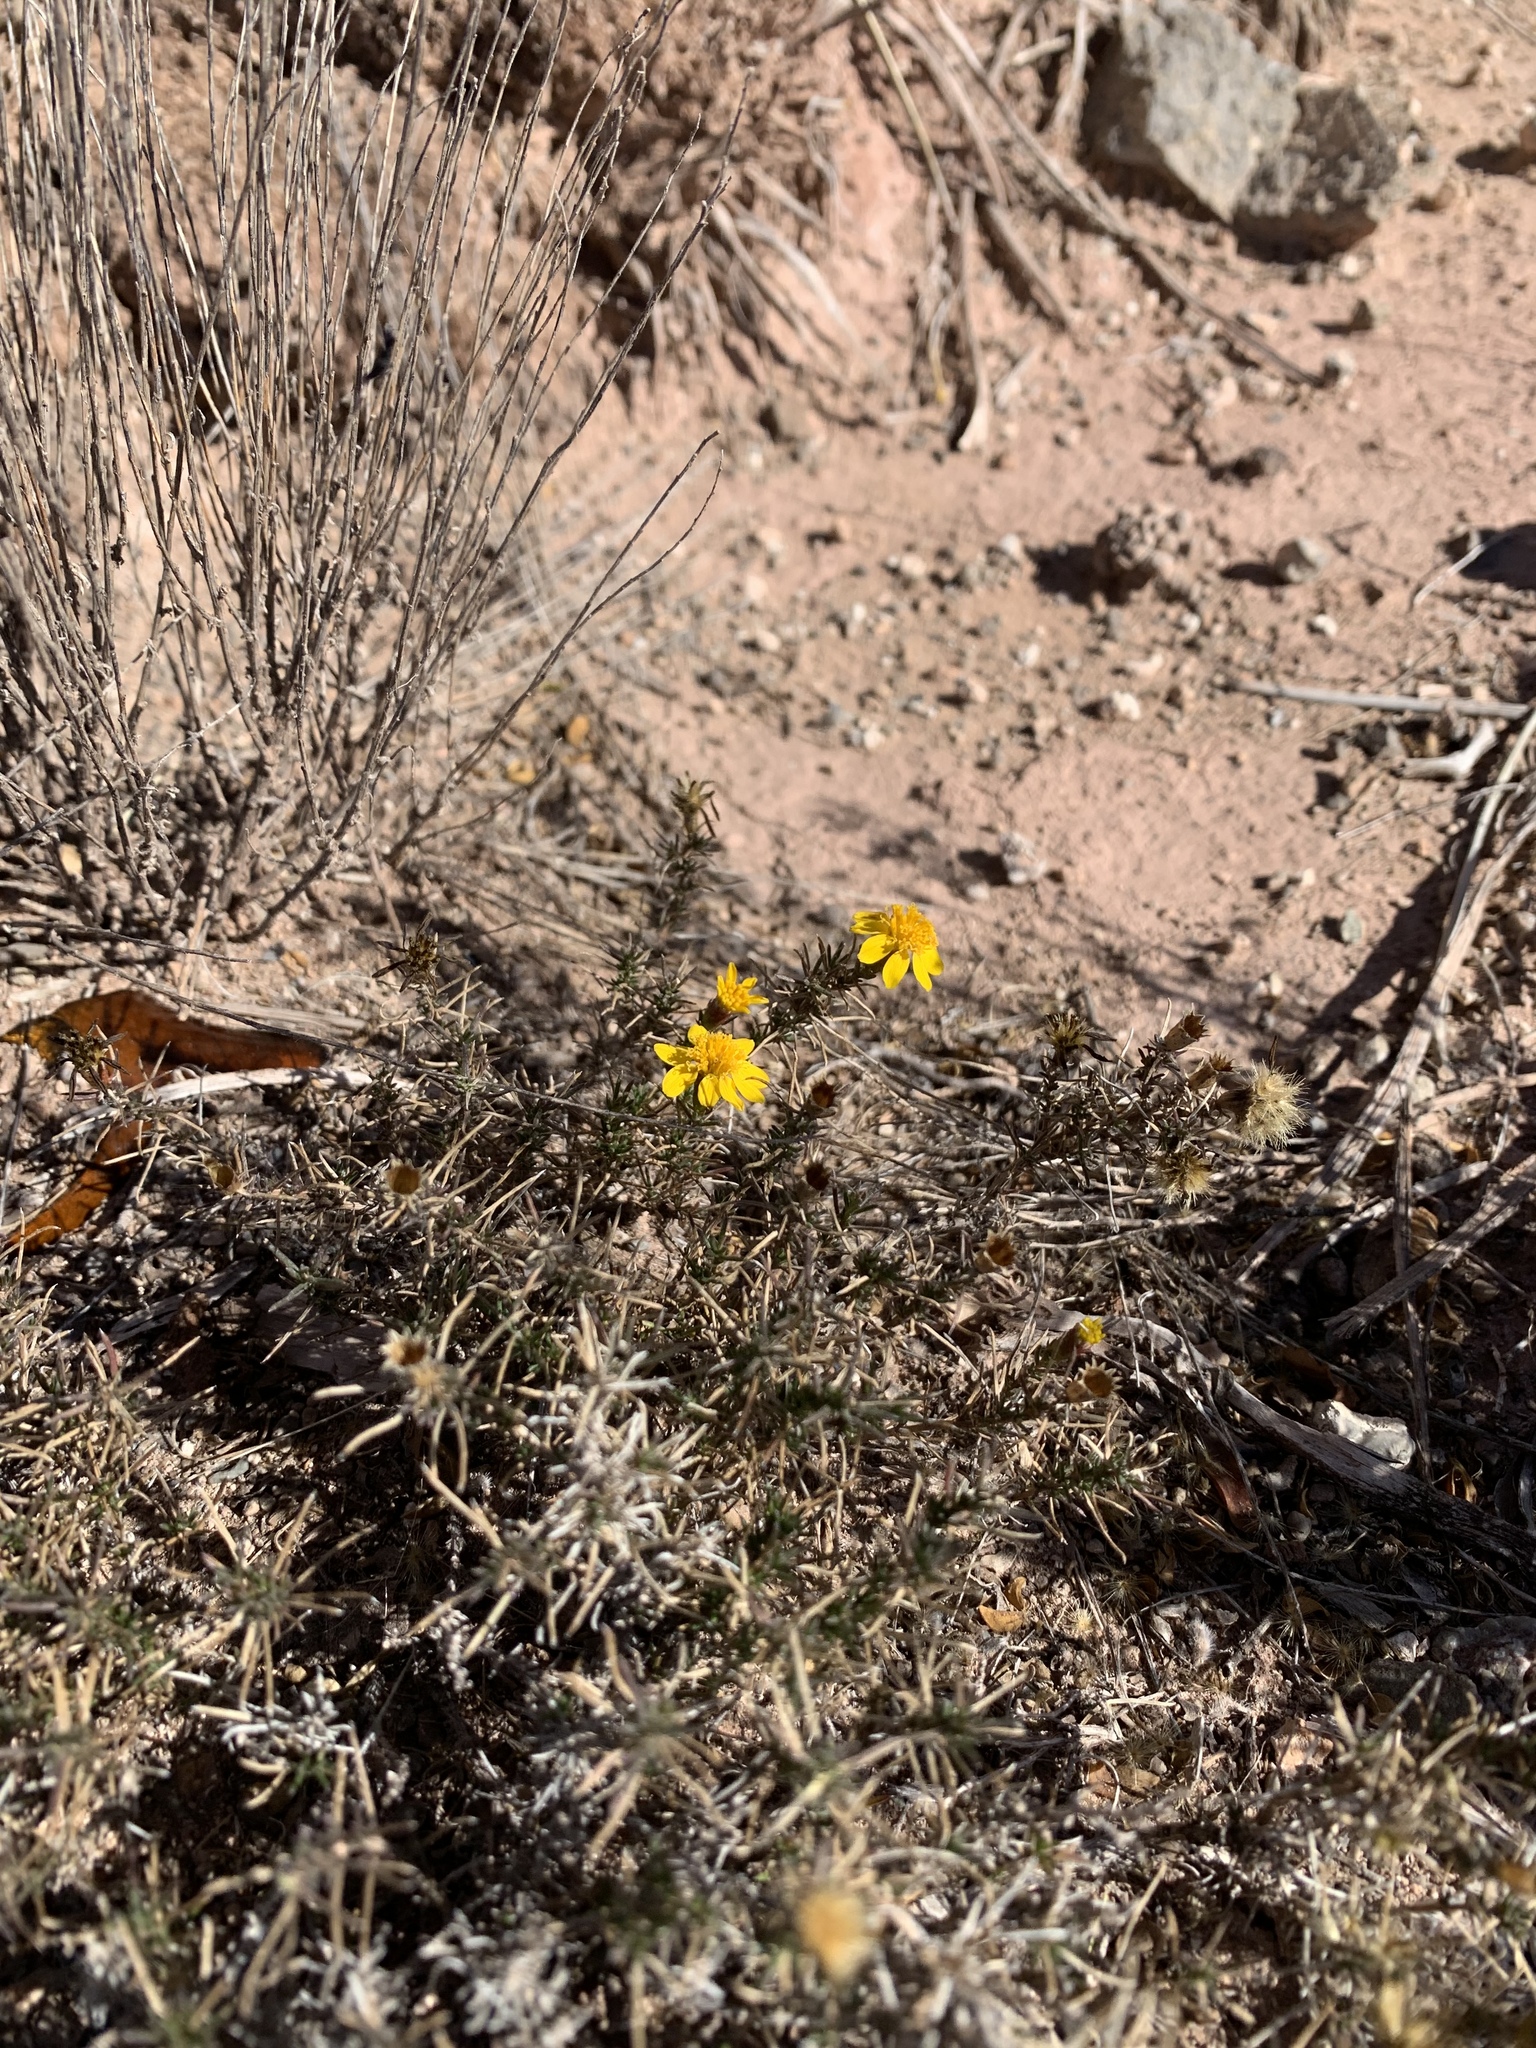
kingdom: Plantae
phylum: Tracheophyta
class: Magnoliopsida
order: Asterales
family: Asteraceae
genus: Thymophylla
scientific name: Thymophylla acerosa
